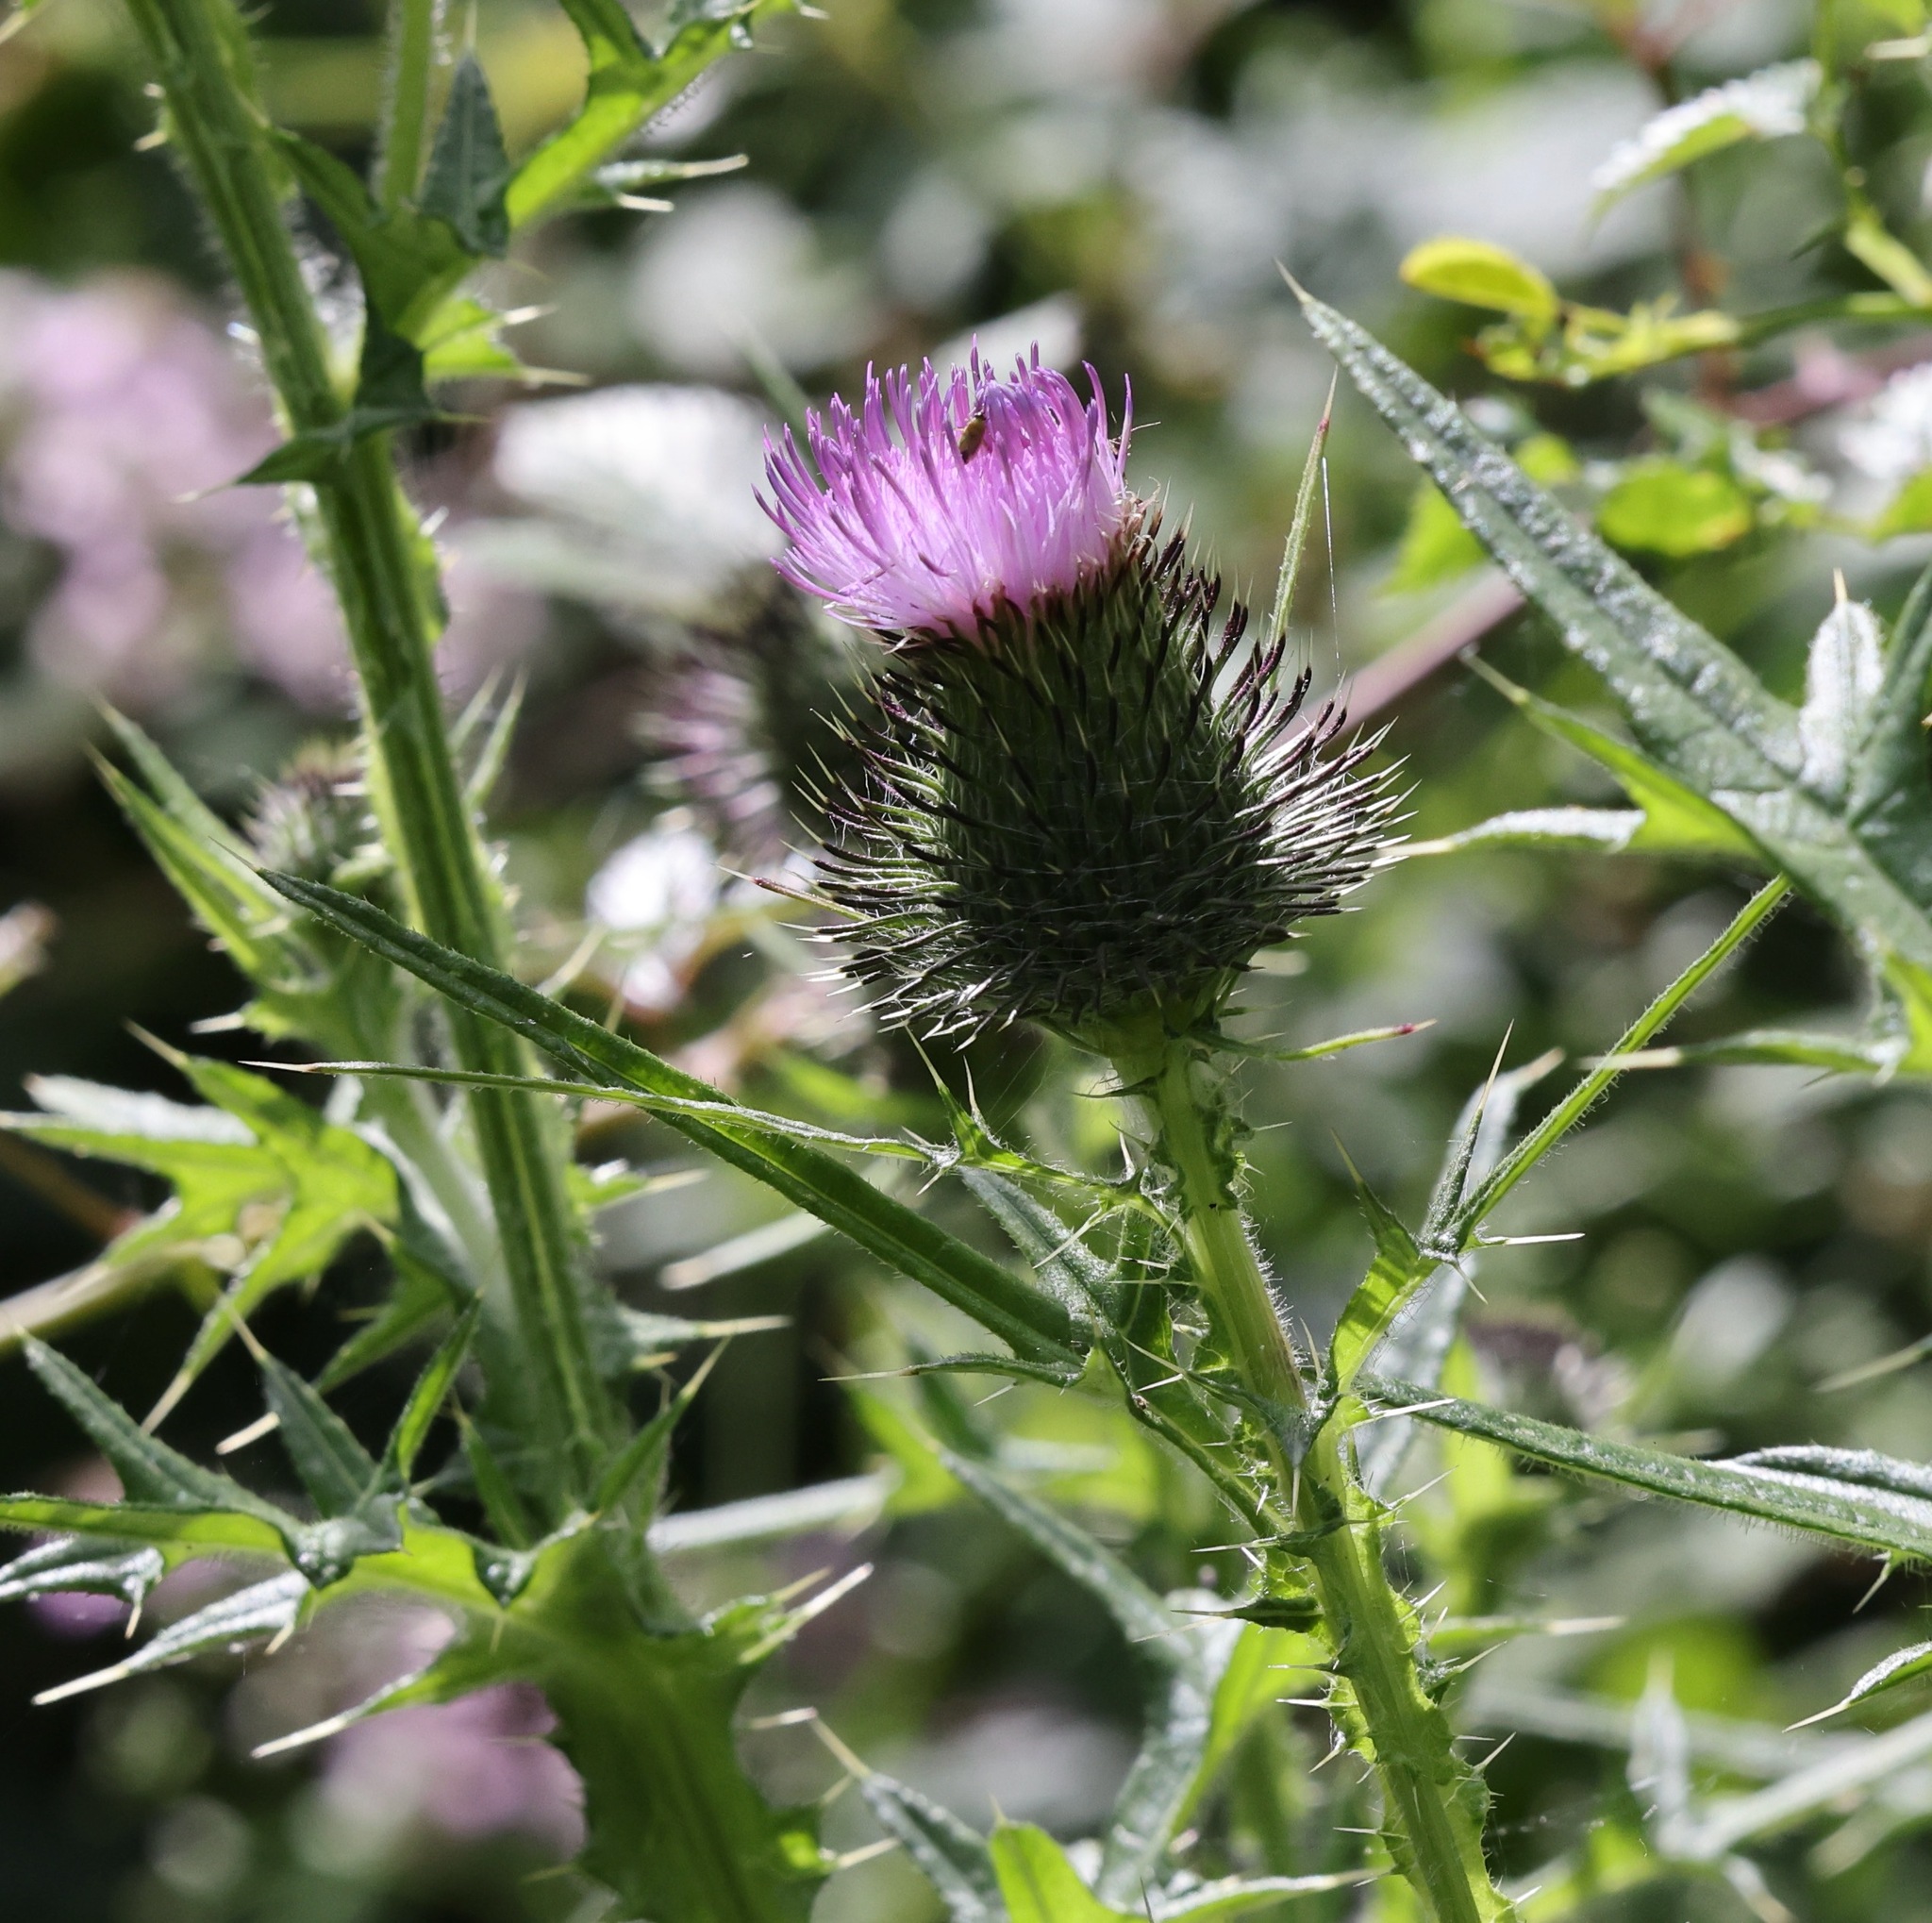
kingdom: Plantae
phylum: Tracheophyta
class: Magnoliopsida
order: Asterales
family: Asteraceae
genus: Cirsium
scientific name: Cirsium vulgare
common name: Bull thistle
